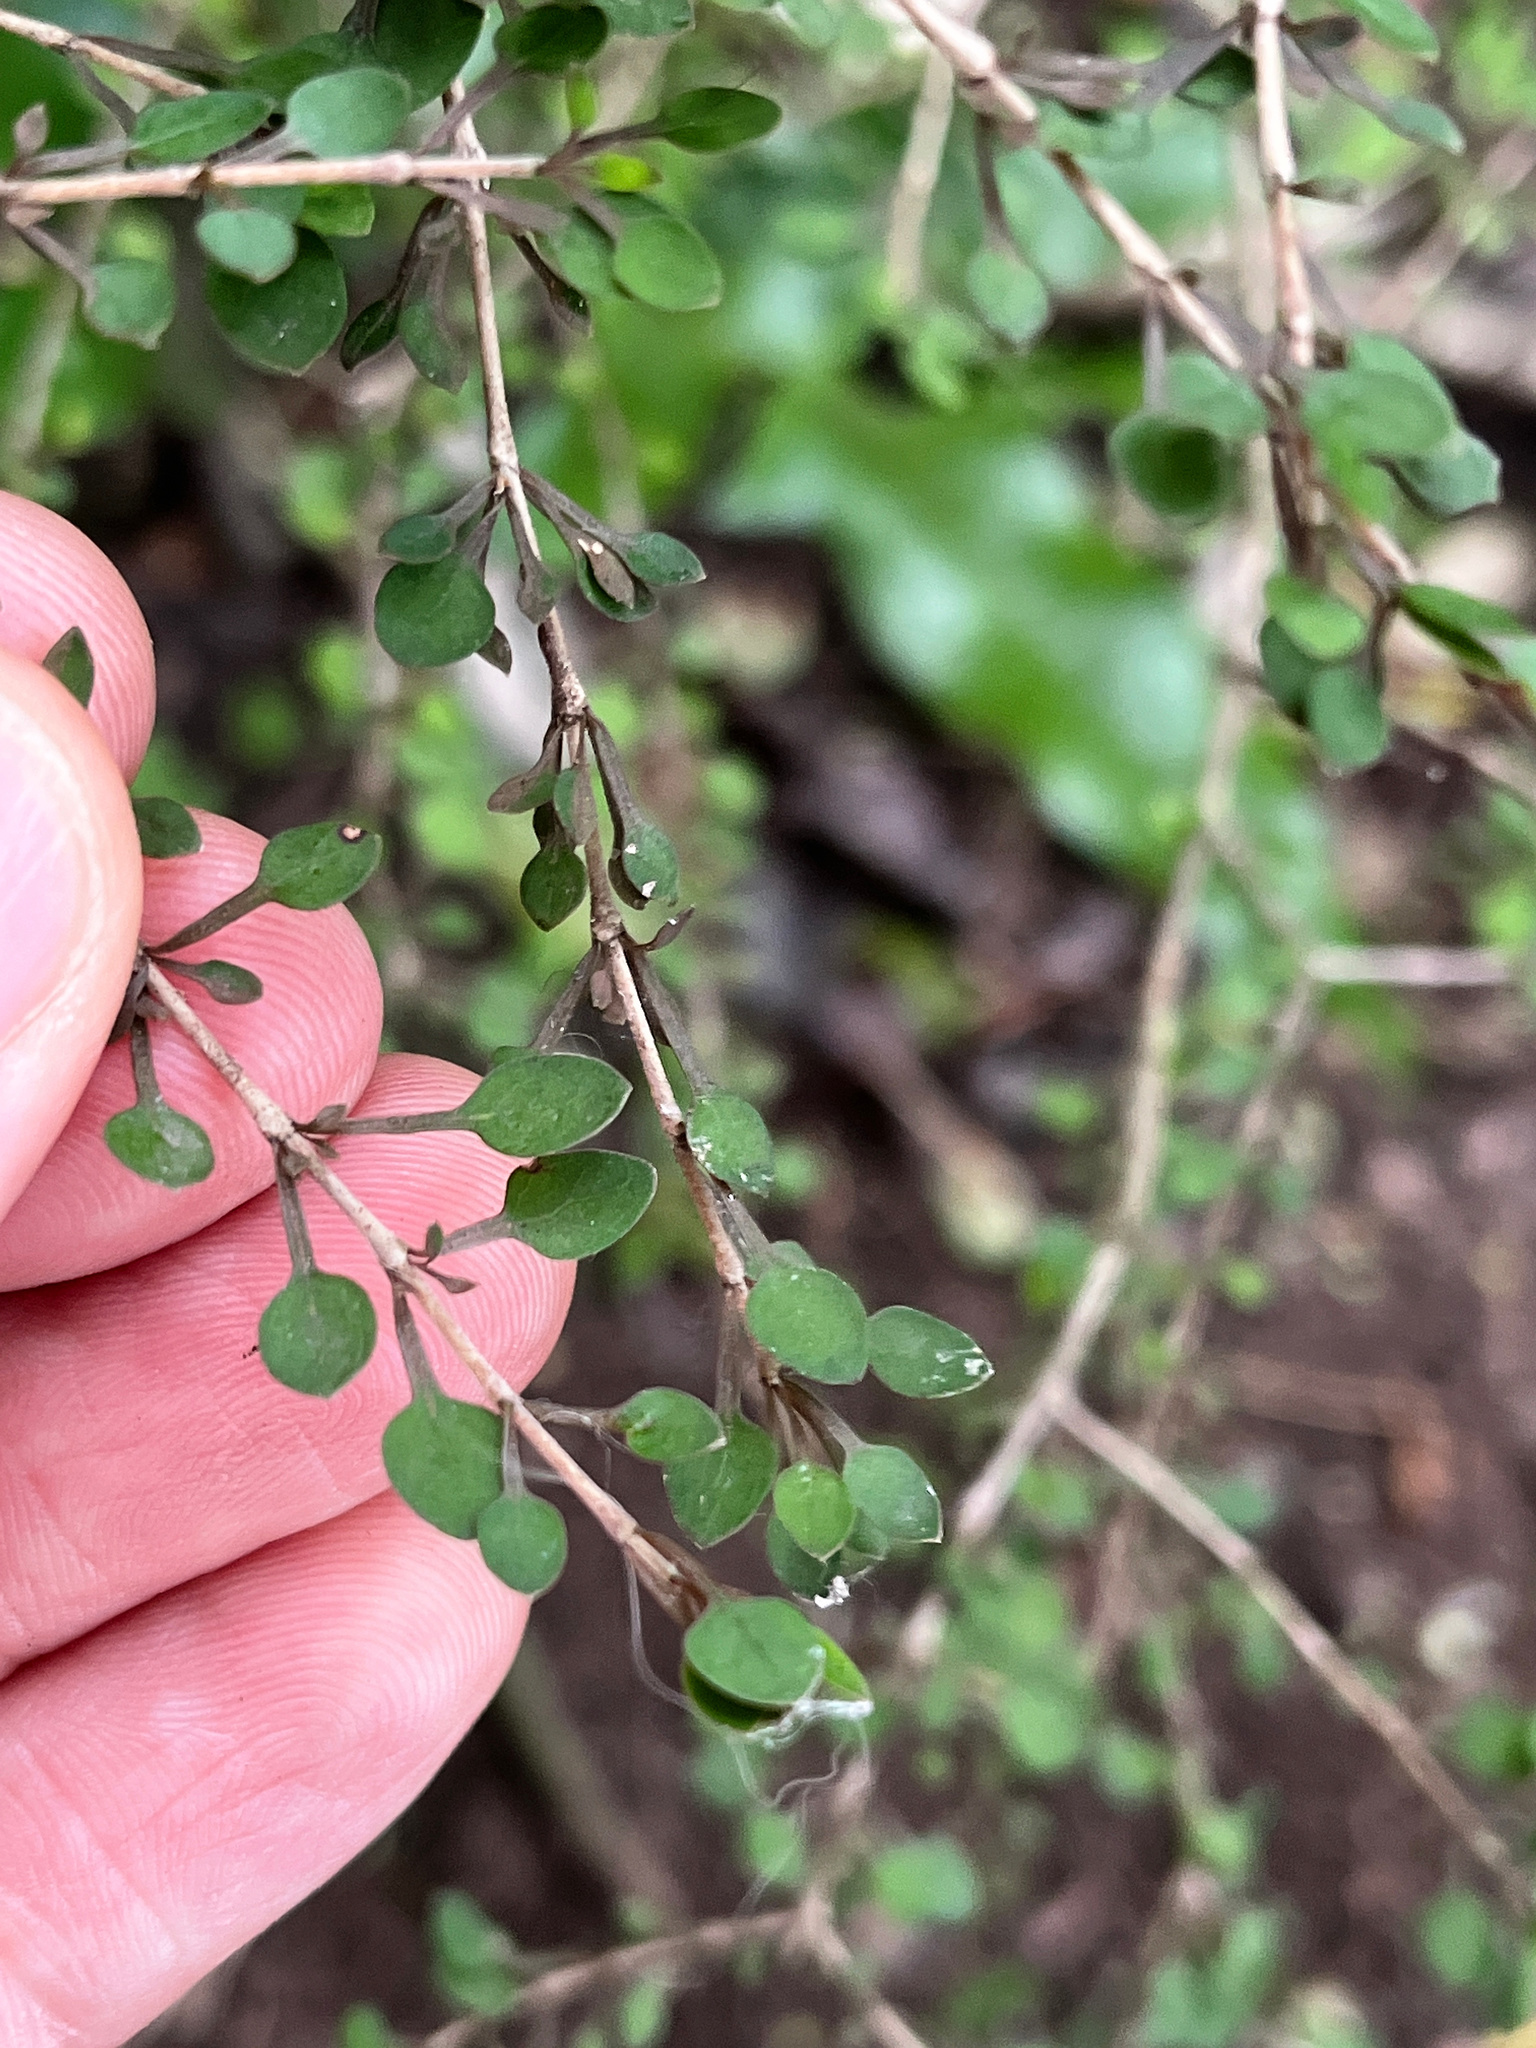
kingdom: Plantae
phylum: Tracheophyta
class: Magnoliopsida
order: Gentianales
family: Rubiaceae
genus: Coprosma
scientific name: Coprosma virescens
